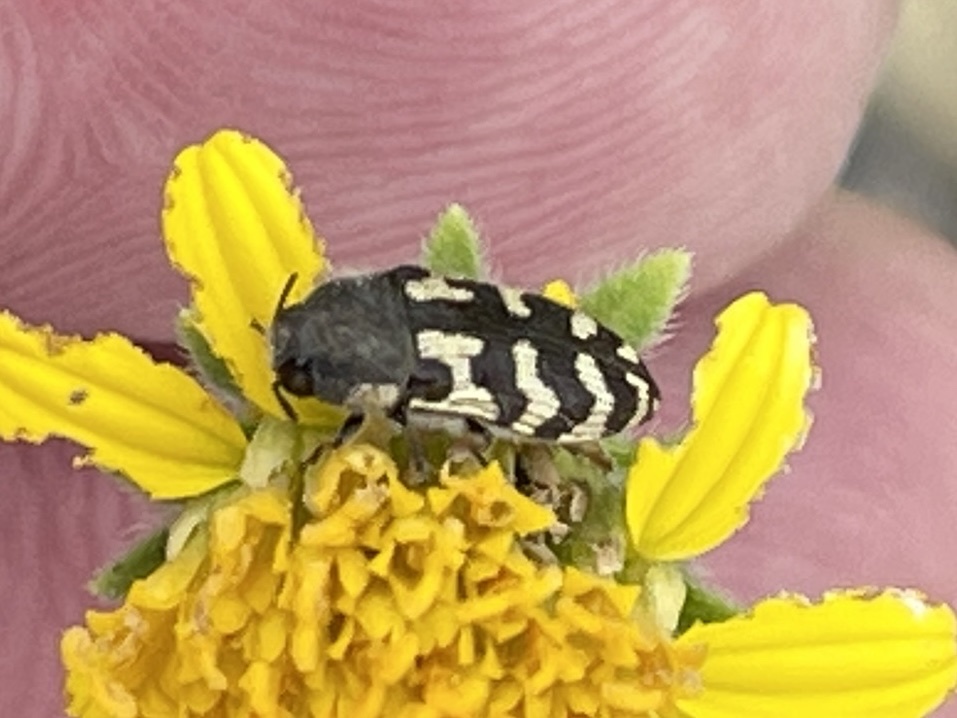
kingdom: Animalia
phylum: Arthropoda
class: Insecta
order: Coleoptera
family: Buprestidae
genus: Acmaeodera
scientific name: Acmaeodera mixta
